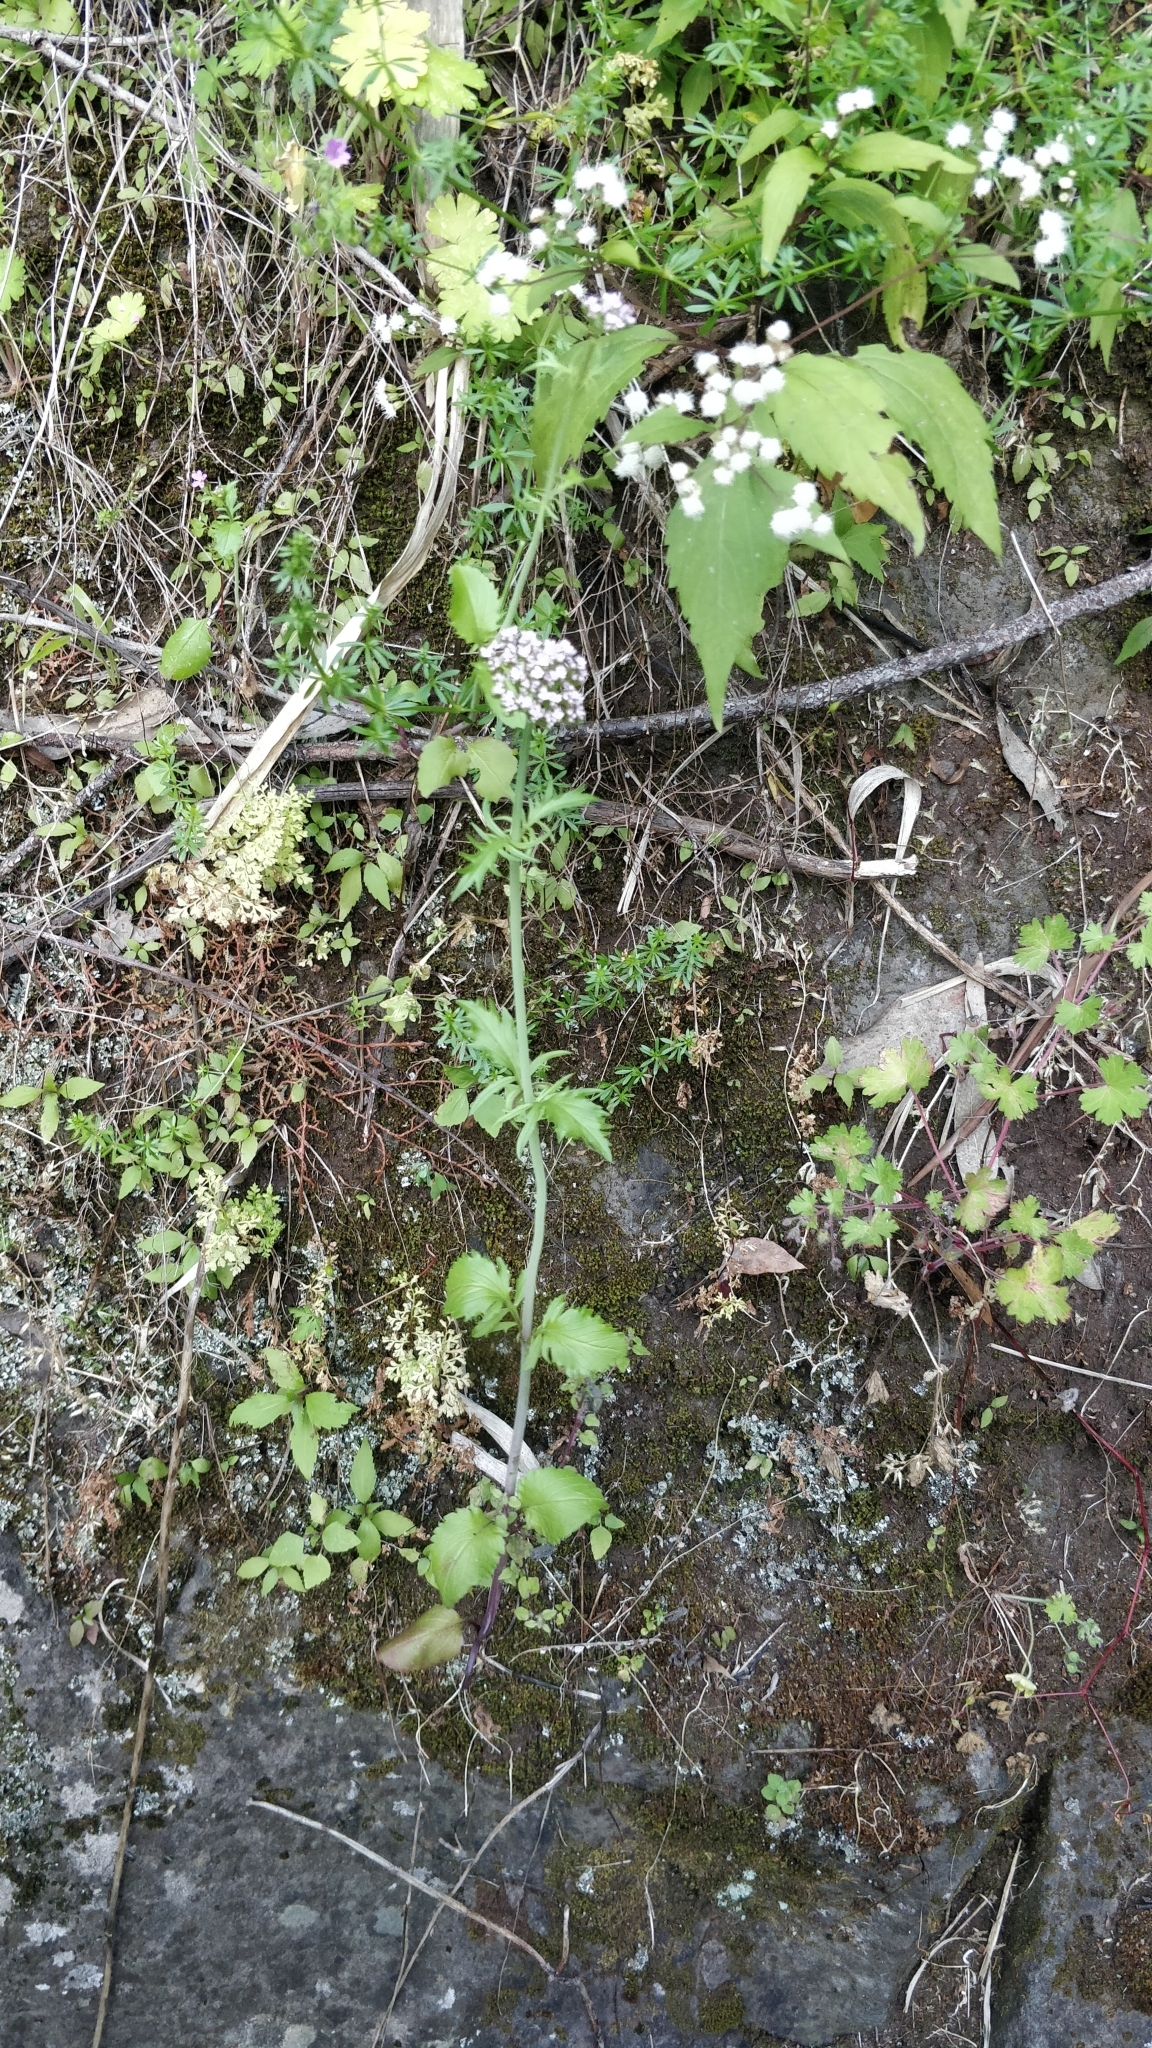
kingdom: Plantae
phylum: Tracheophyta
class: Magnoliopsida
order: Dipsacales
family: Caprifoliaceae
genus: Centranthus
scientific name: Centranthus calcitrapae
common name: Annual valerian
